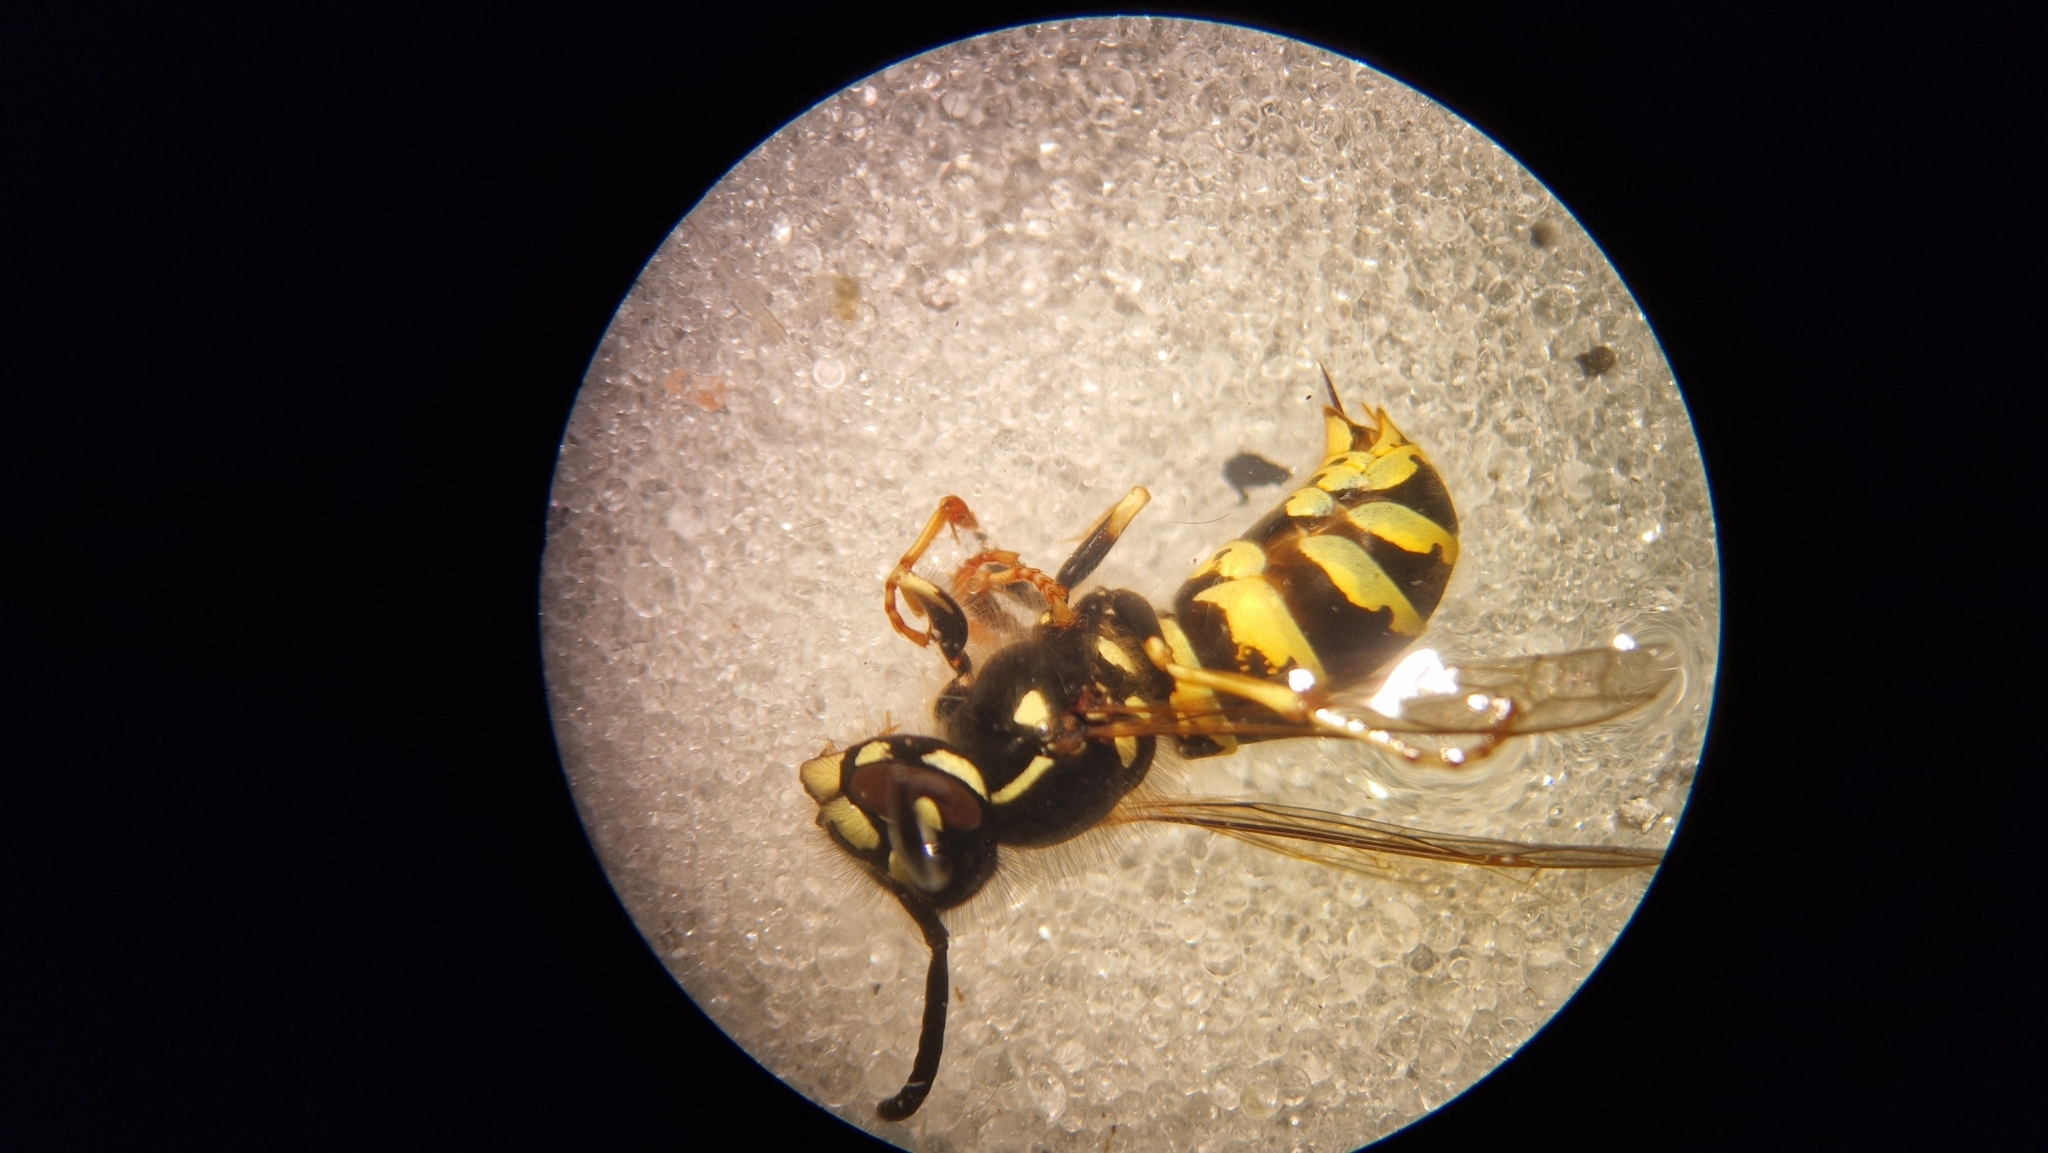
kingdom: Animalia
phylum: Arthropoda
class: Insecta
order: Hymenoptera
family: Vespidae
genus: Vespula
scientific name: Vespula vulgaris
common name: Common wasp
